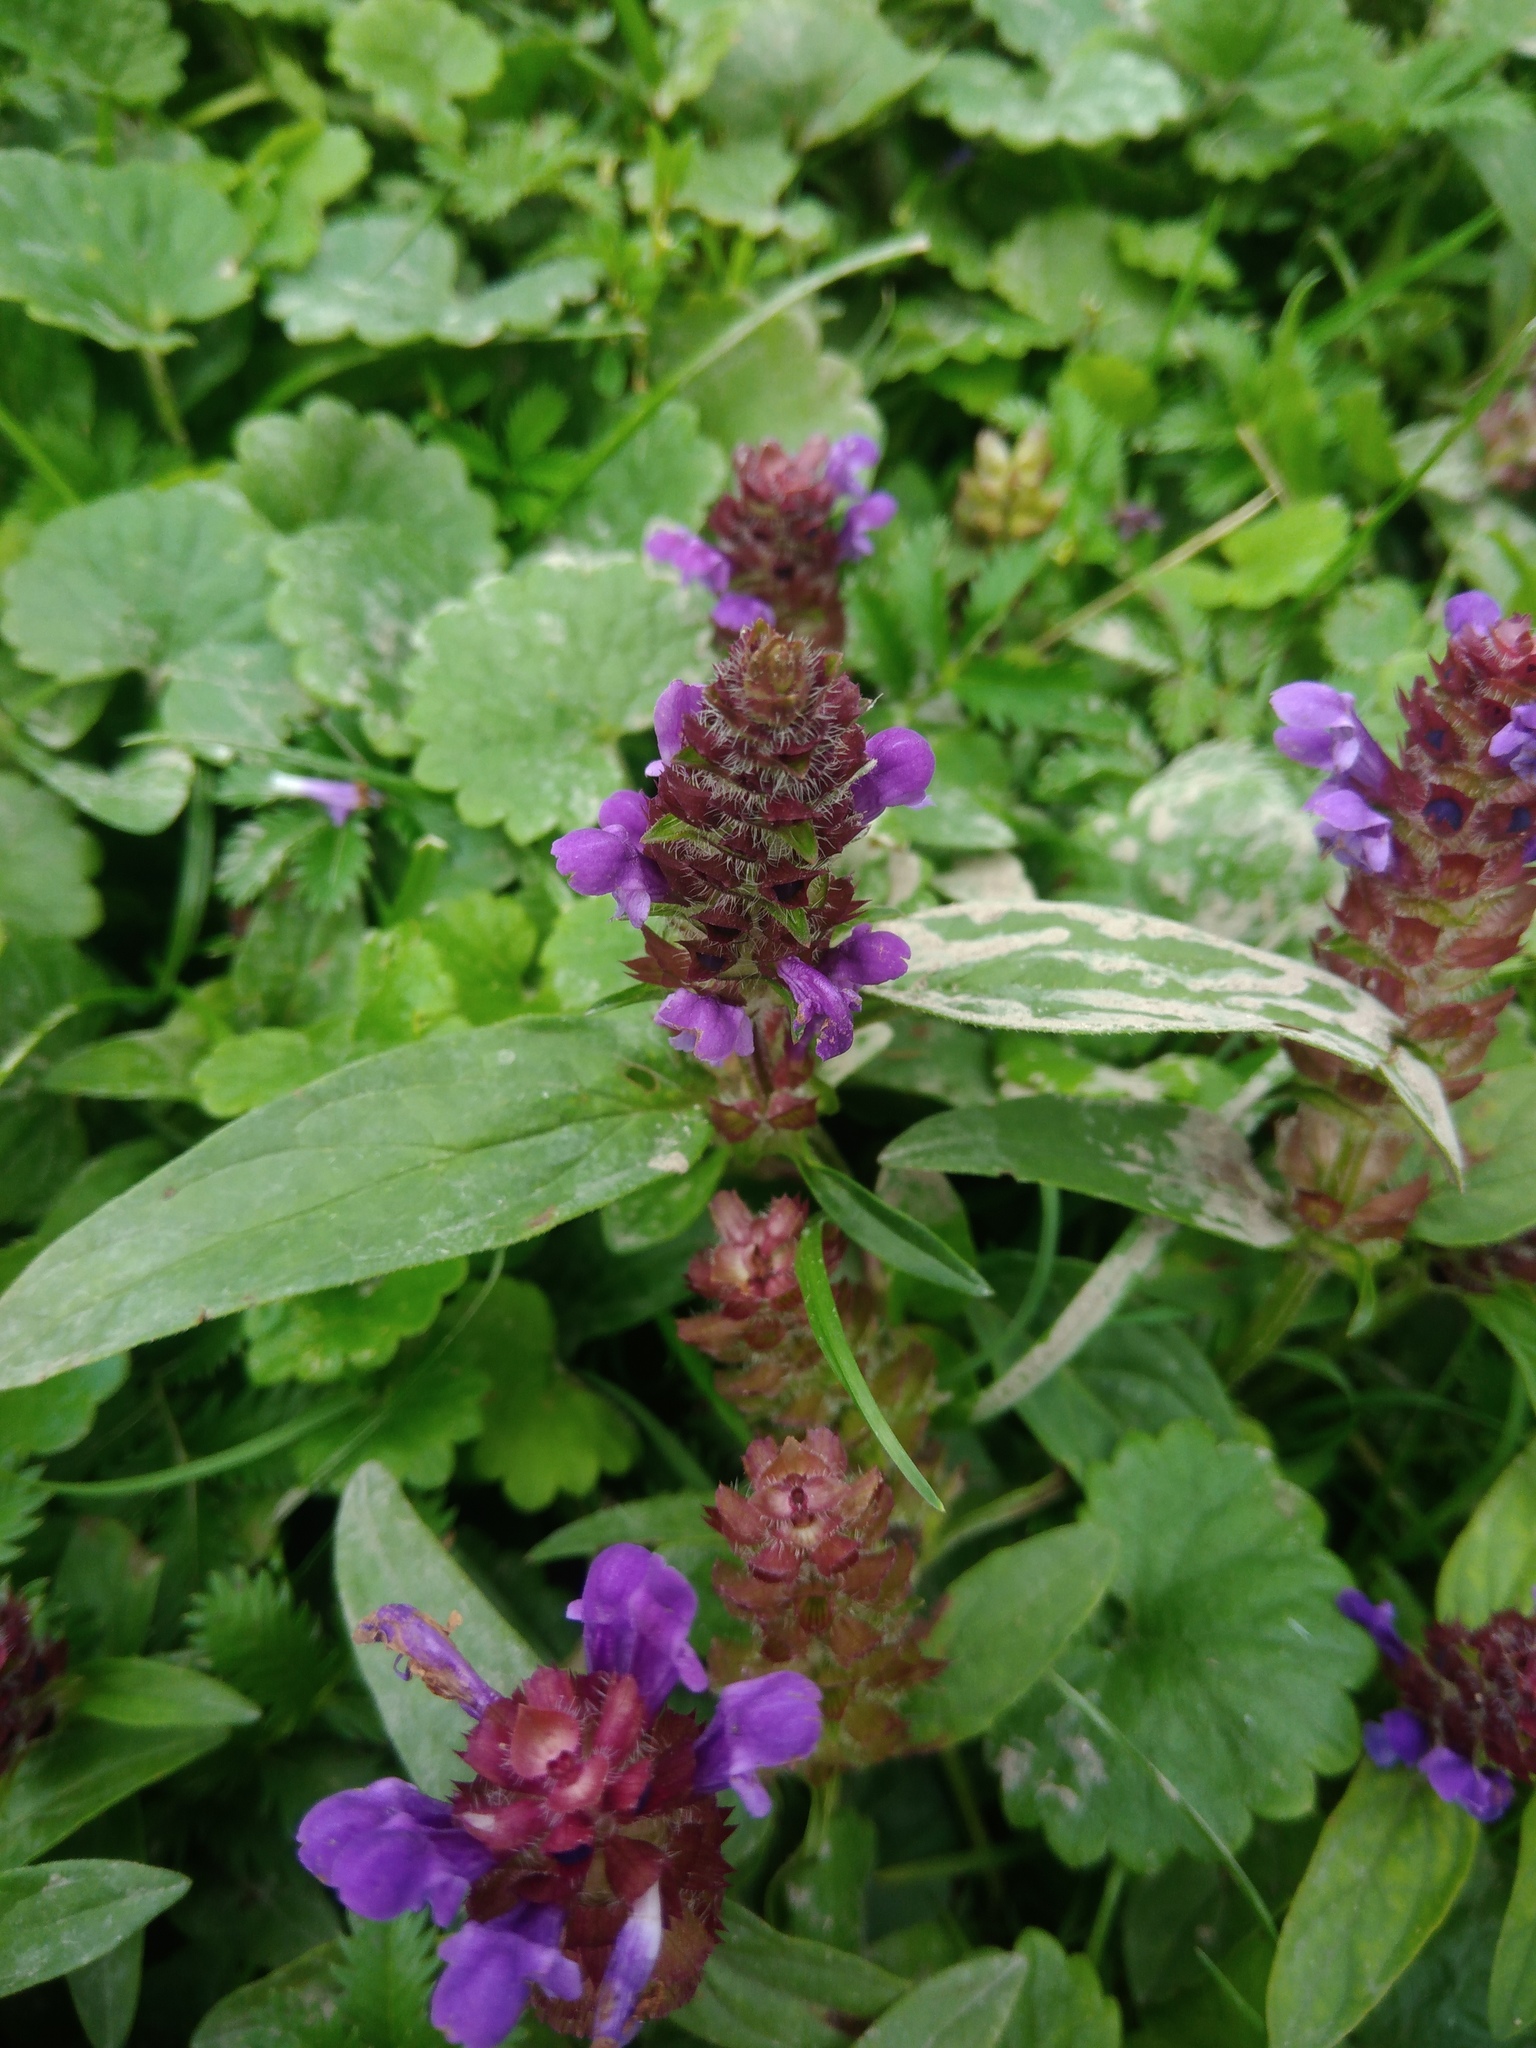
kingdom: Plantae
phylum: Tracheophyta
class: Magnoliopsida
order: Lamiales
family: Lamiaceae
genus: Prunella
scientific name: Prunella vulgaris
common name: Heal-all
